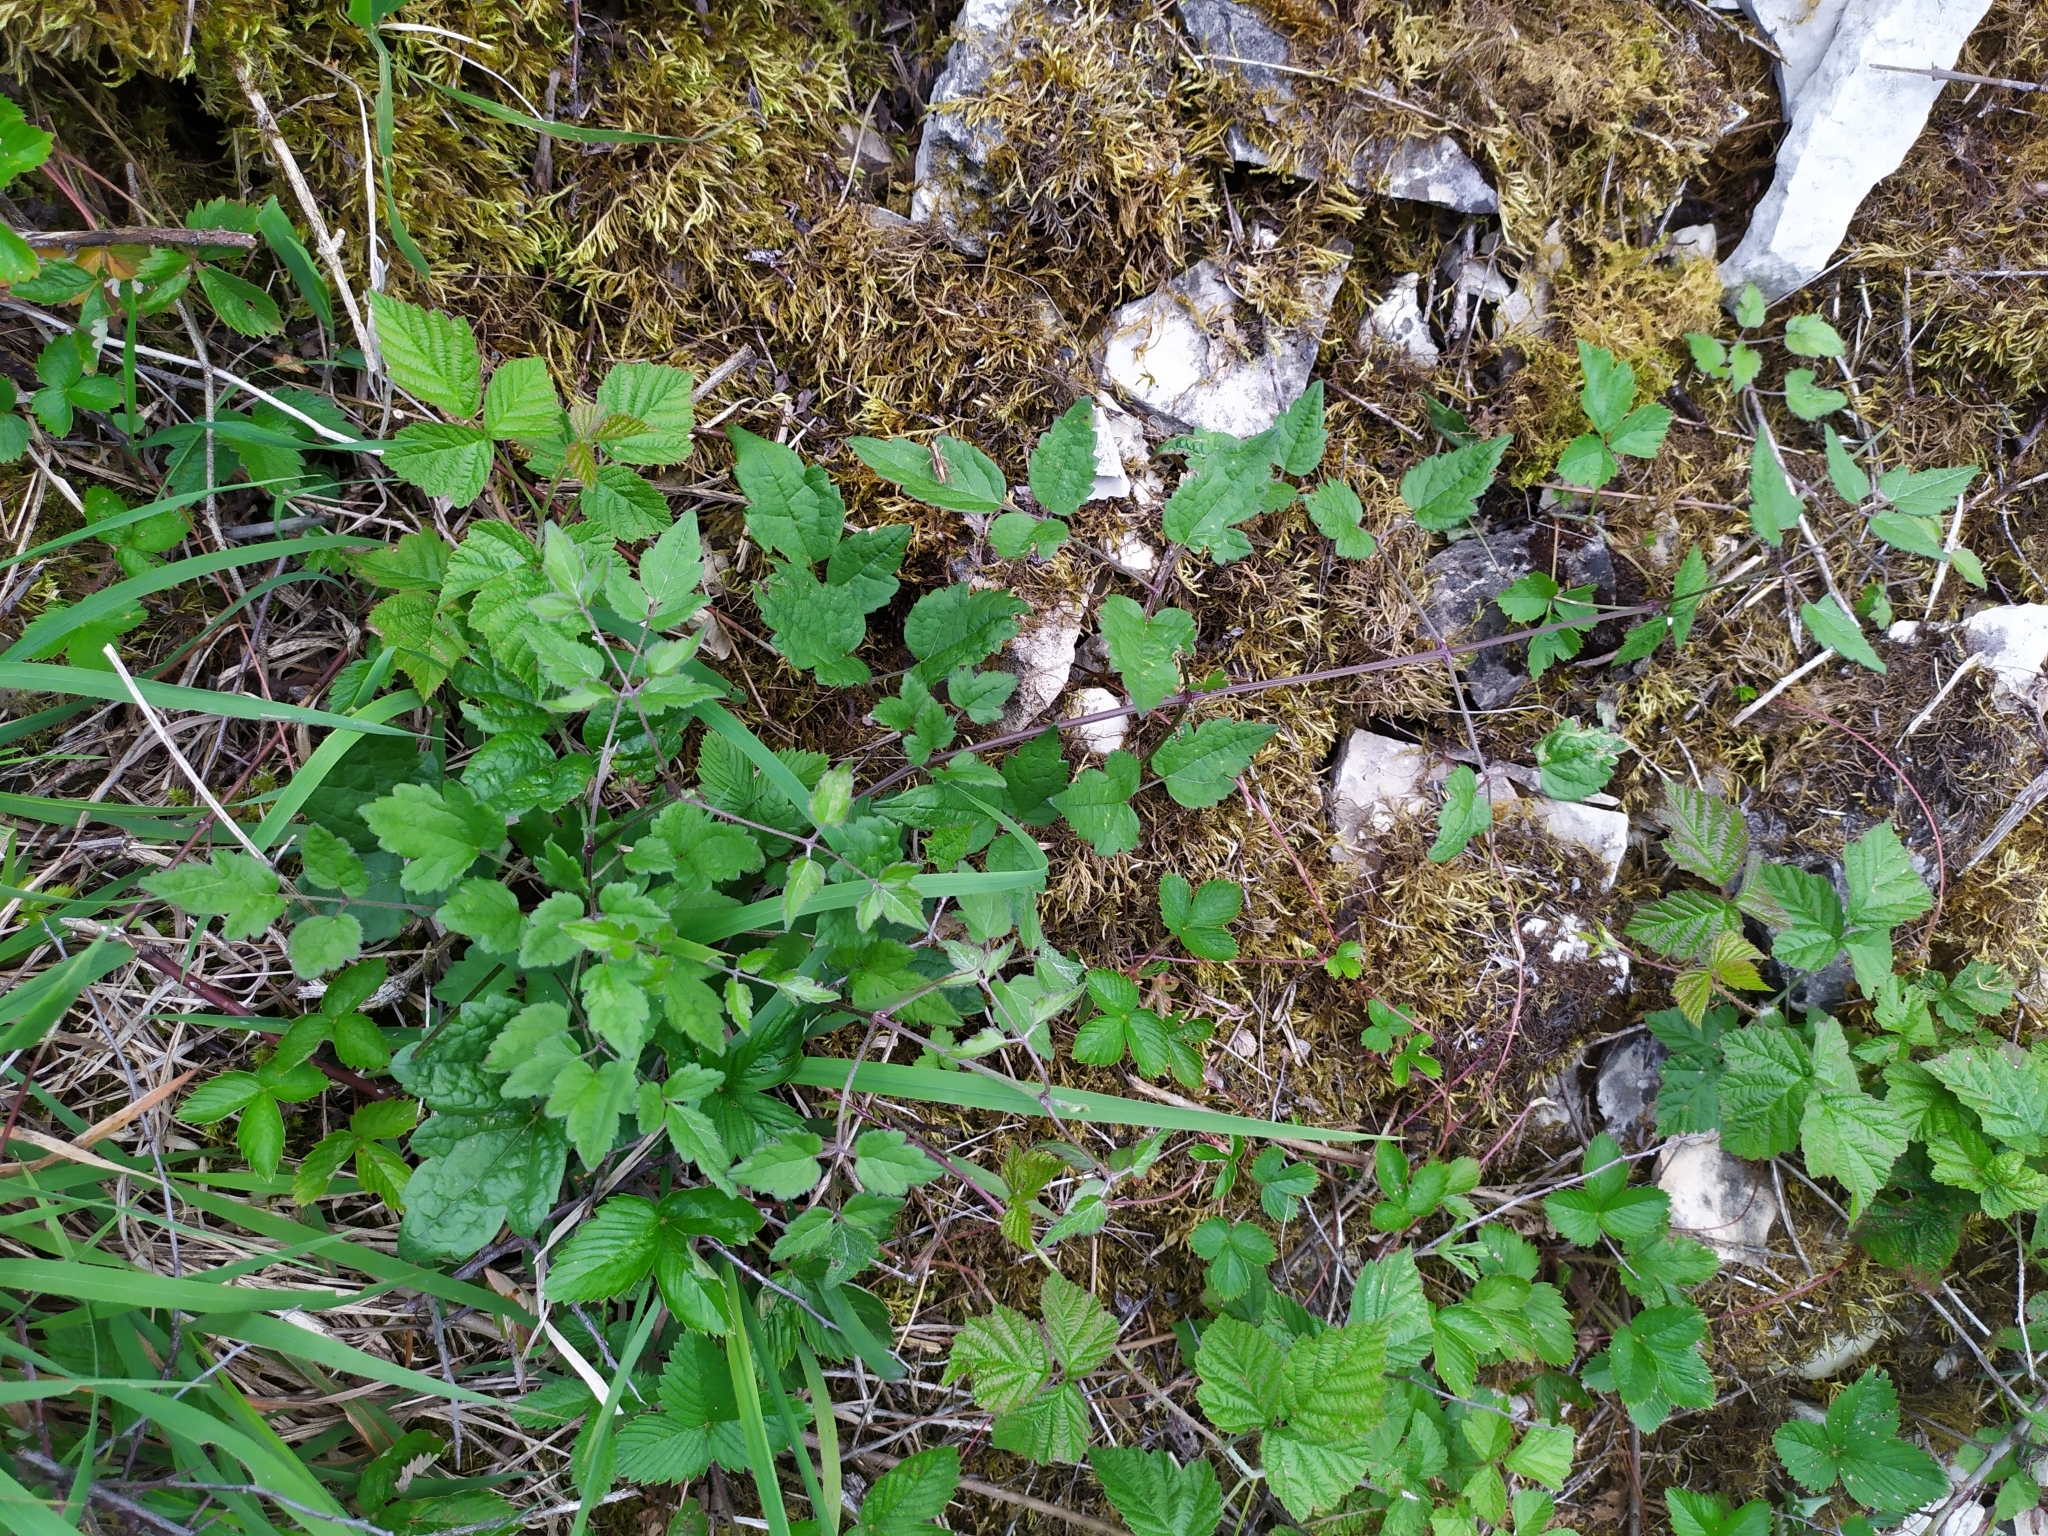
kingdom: Plantae
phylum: Tracheophyta
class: Magnoliopsida
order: Ranunculales
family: Ranunculaceae
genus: Clematis
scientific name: Clematis vitalba
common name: Evergreen clematis
